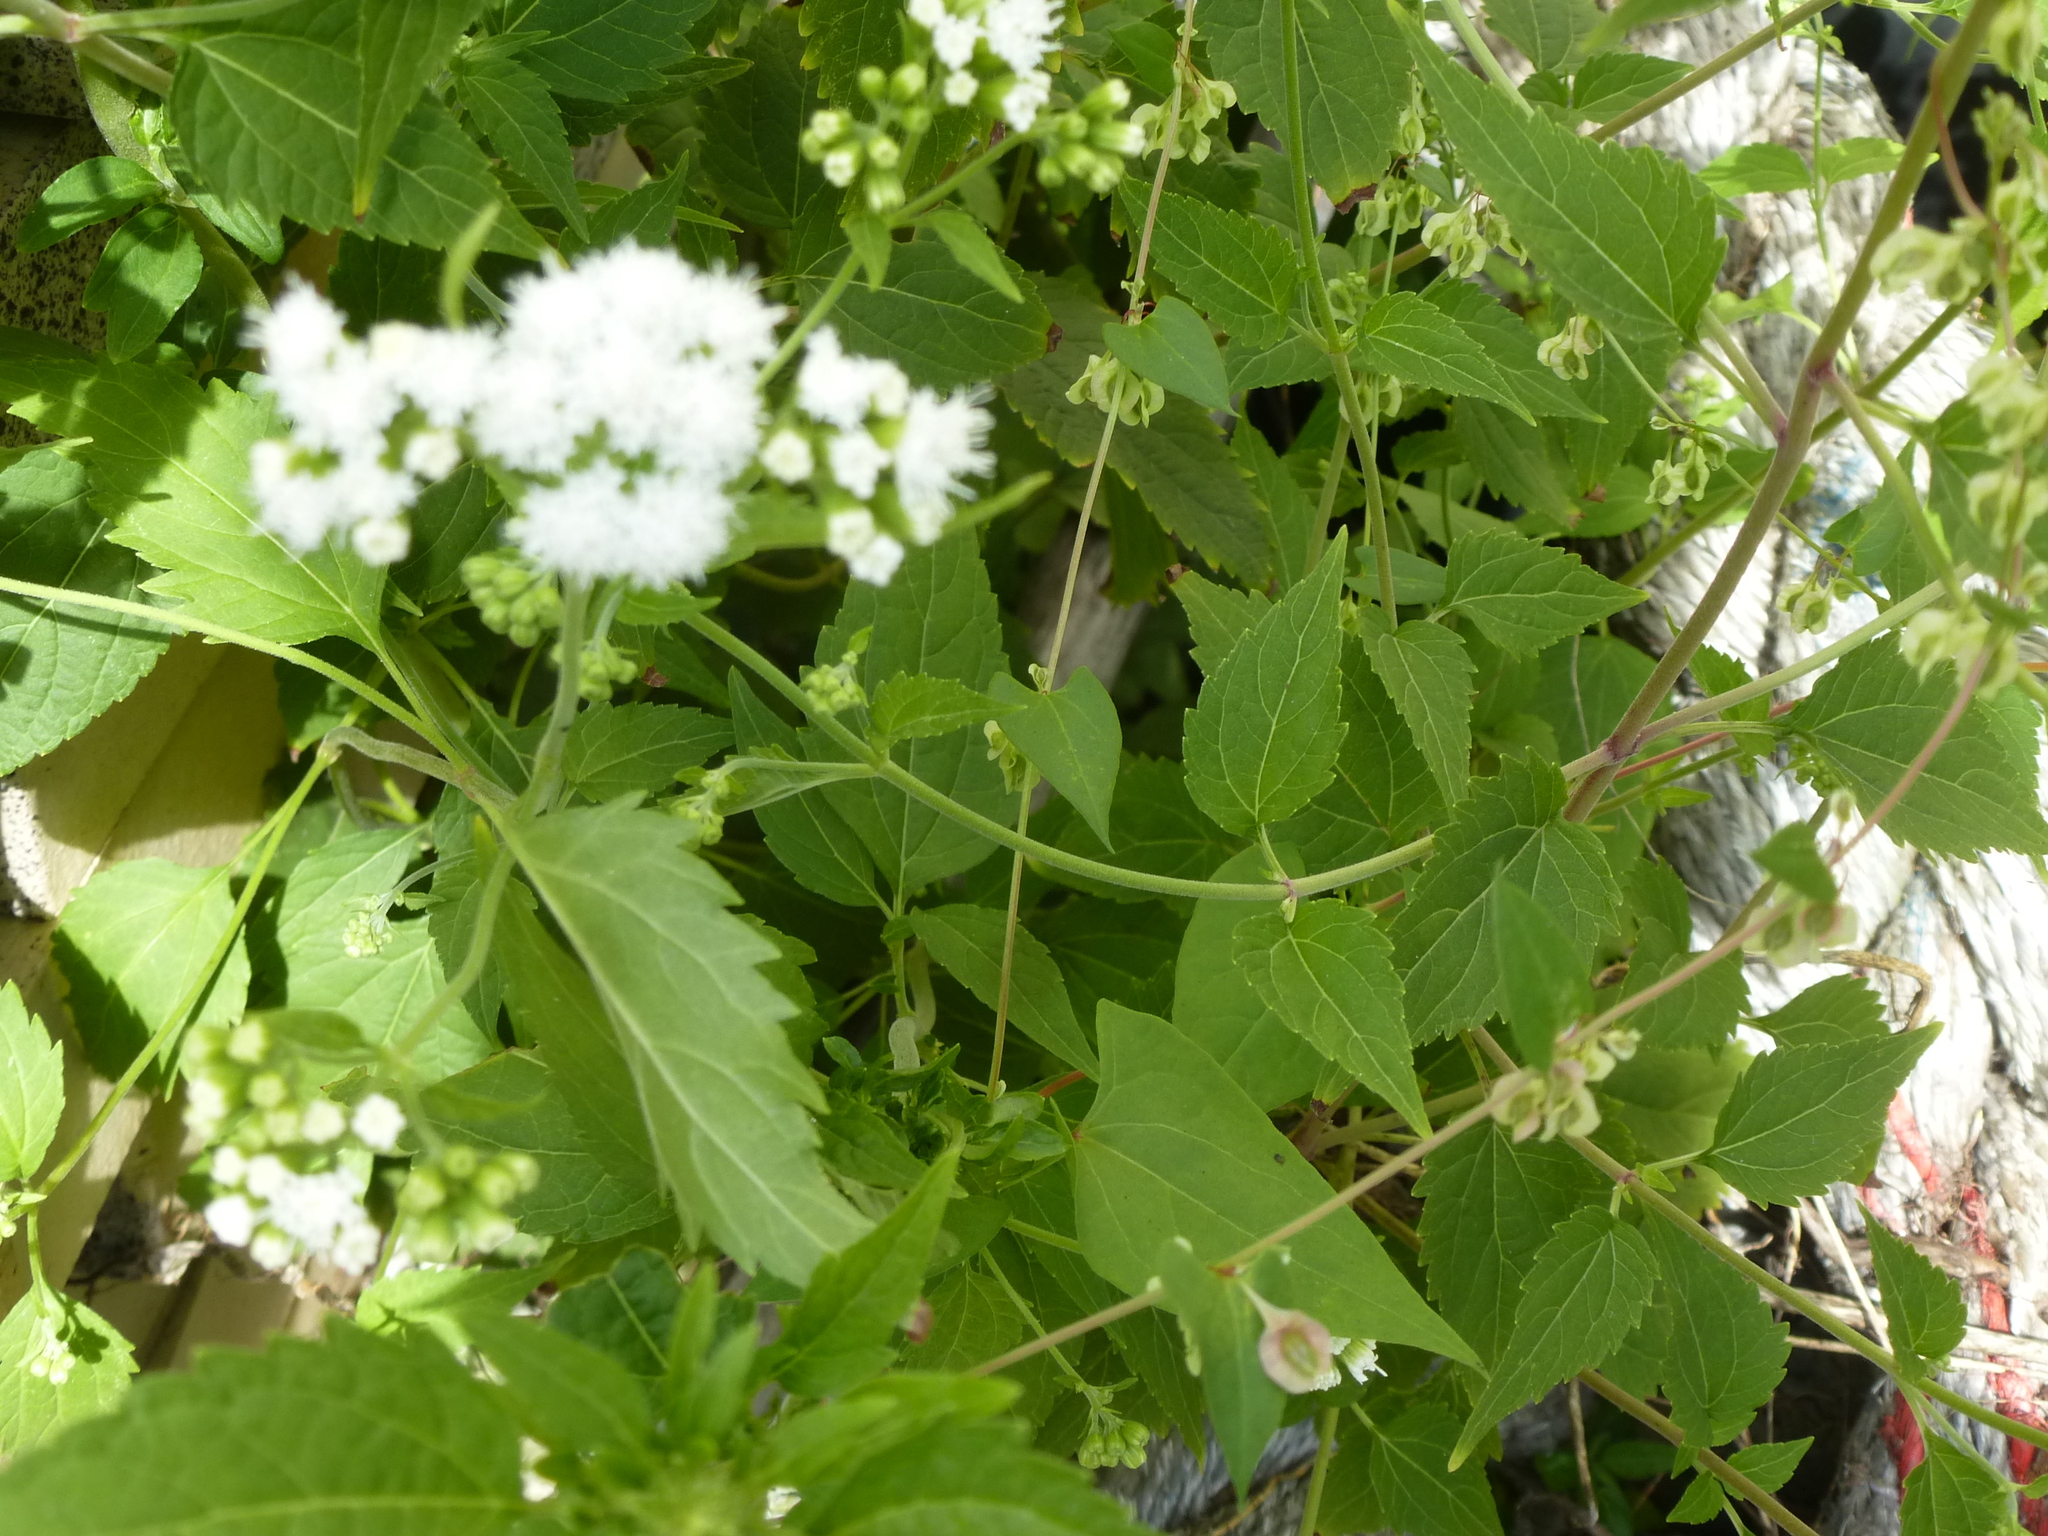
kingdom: Plantae
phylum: Tracheophyta
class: Magnoliopsida
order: Asterales
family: Asteraceae
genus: Ageratina
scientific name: Ageratina altissima
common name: White snakeroot
